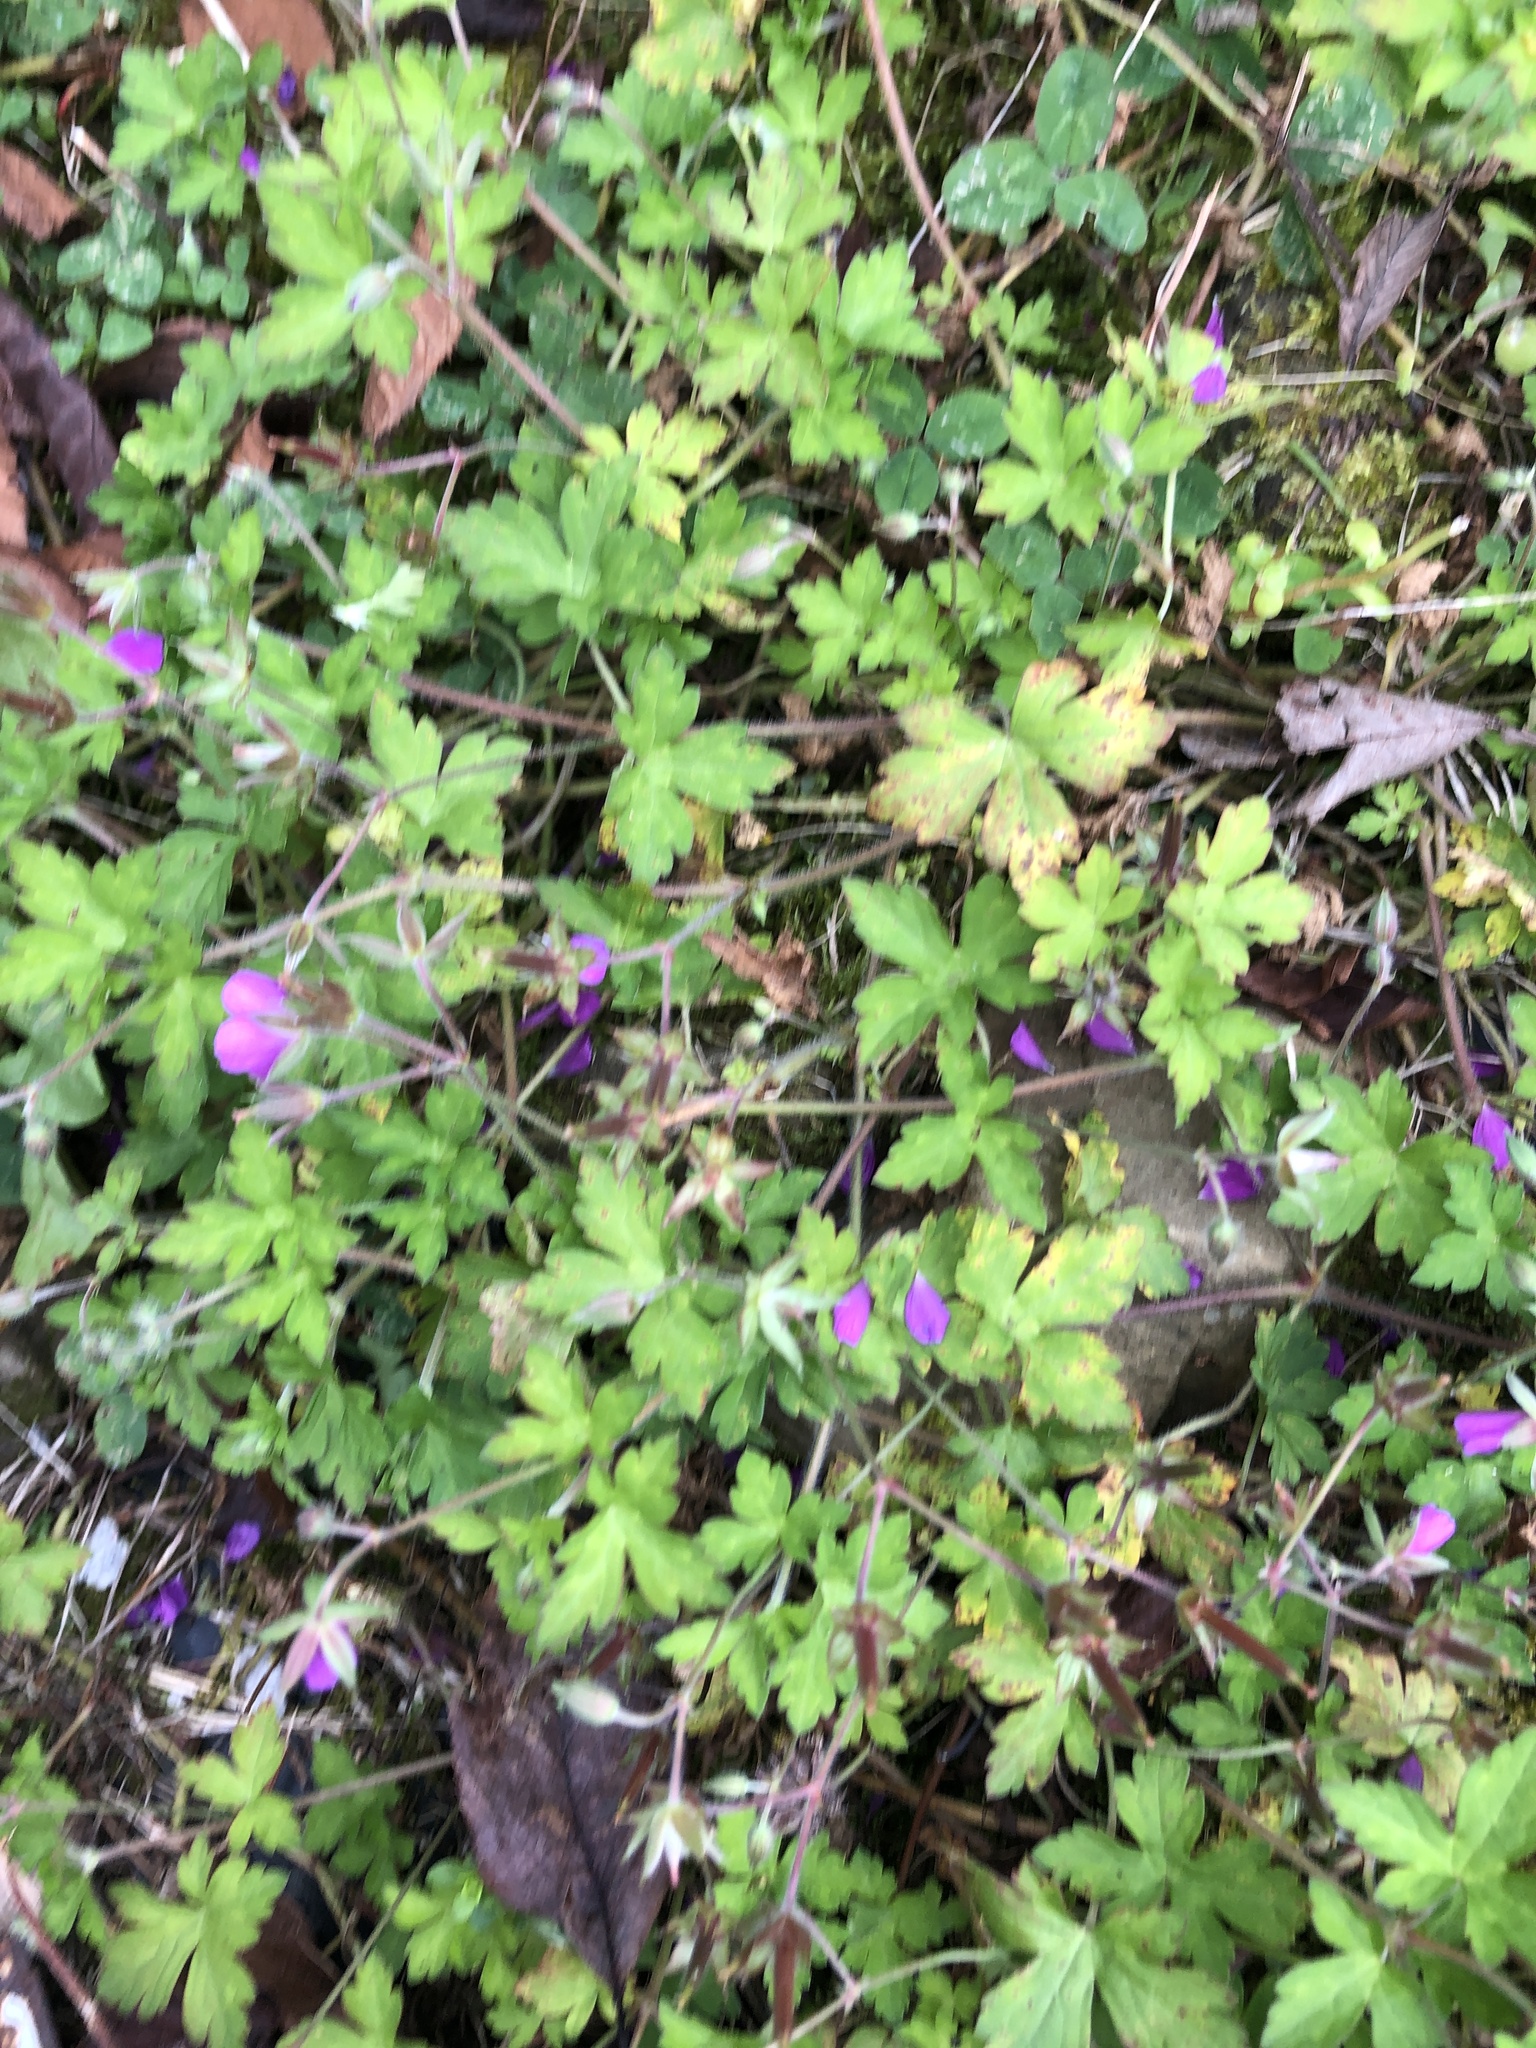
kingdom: Plantae
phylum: Tracheophyta
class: Magnoliopsida
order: Geraniales
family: Geraniaceae
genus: Geranium
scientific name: Geranium thunbergii
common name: Dewdrop crane's-bill
